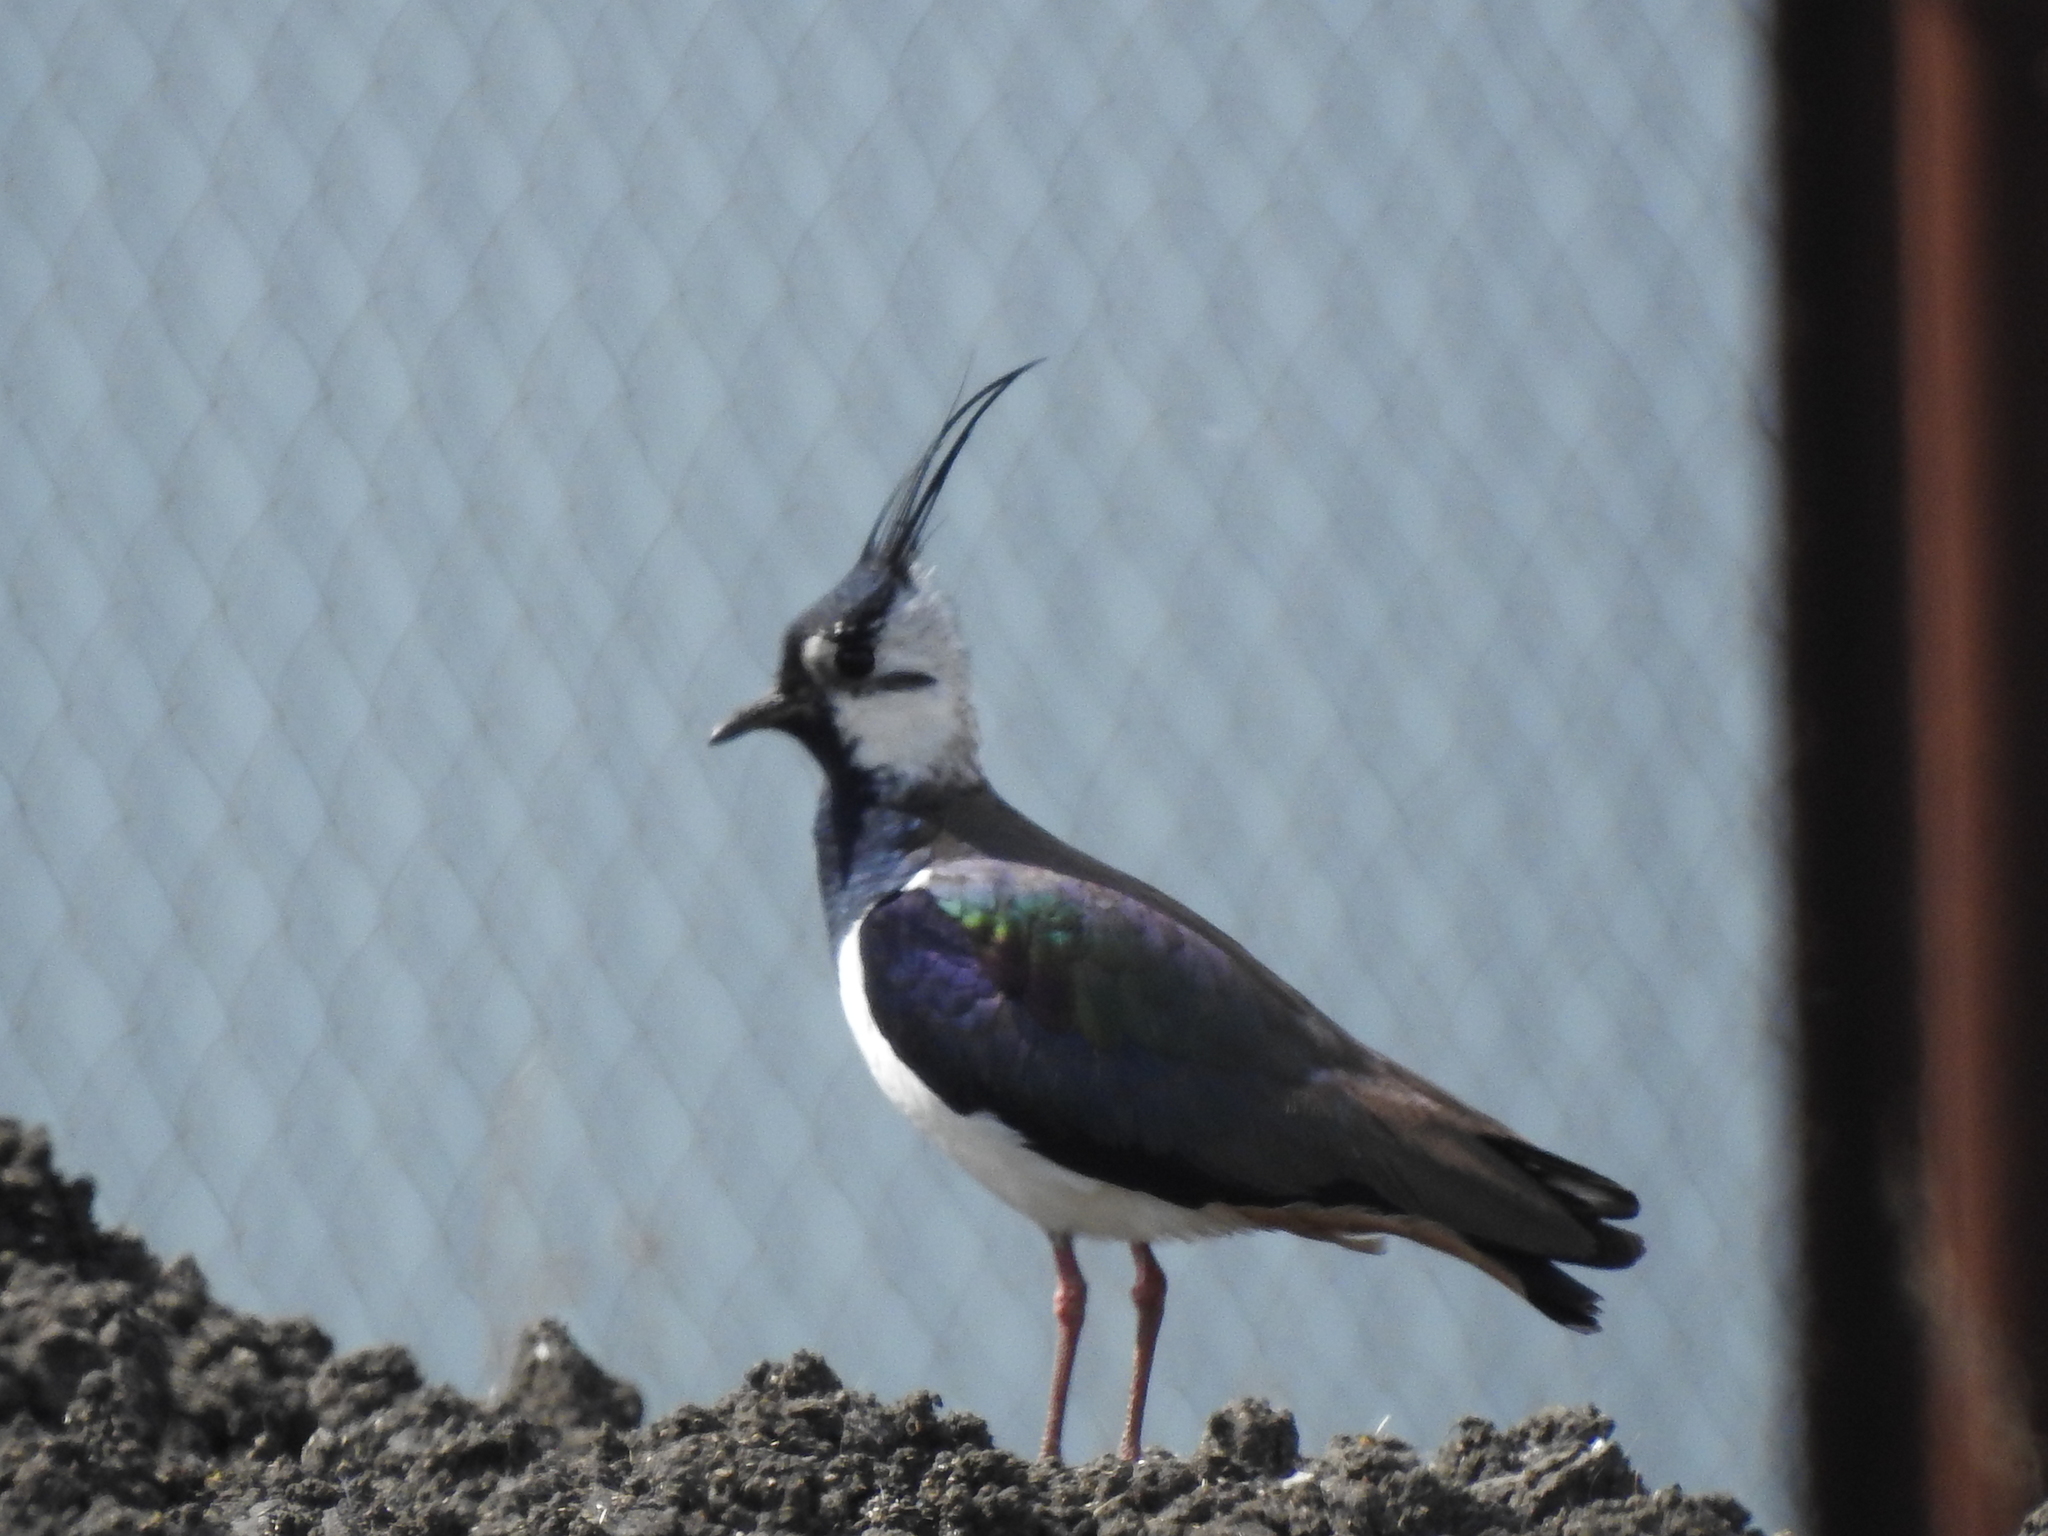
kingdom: Animalia
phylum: Chordata
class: Aves
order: Charadriiformes
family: Charadriidae
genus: Vanellus
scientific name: Vanellus vanellus
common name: Northern lapwing
